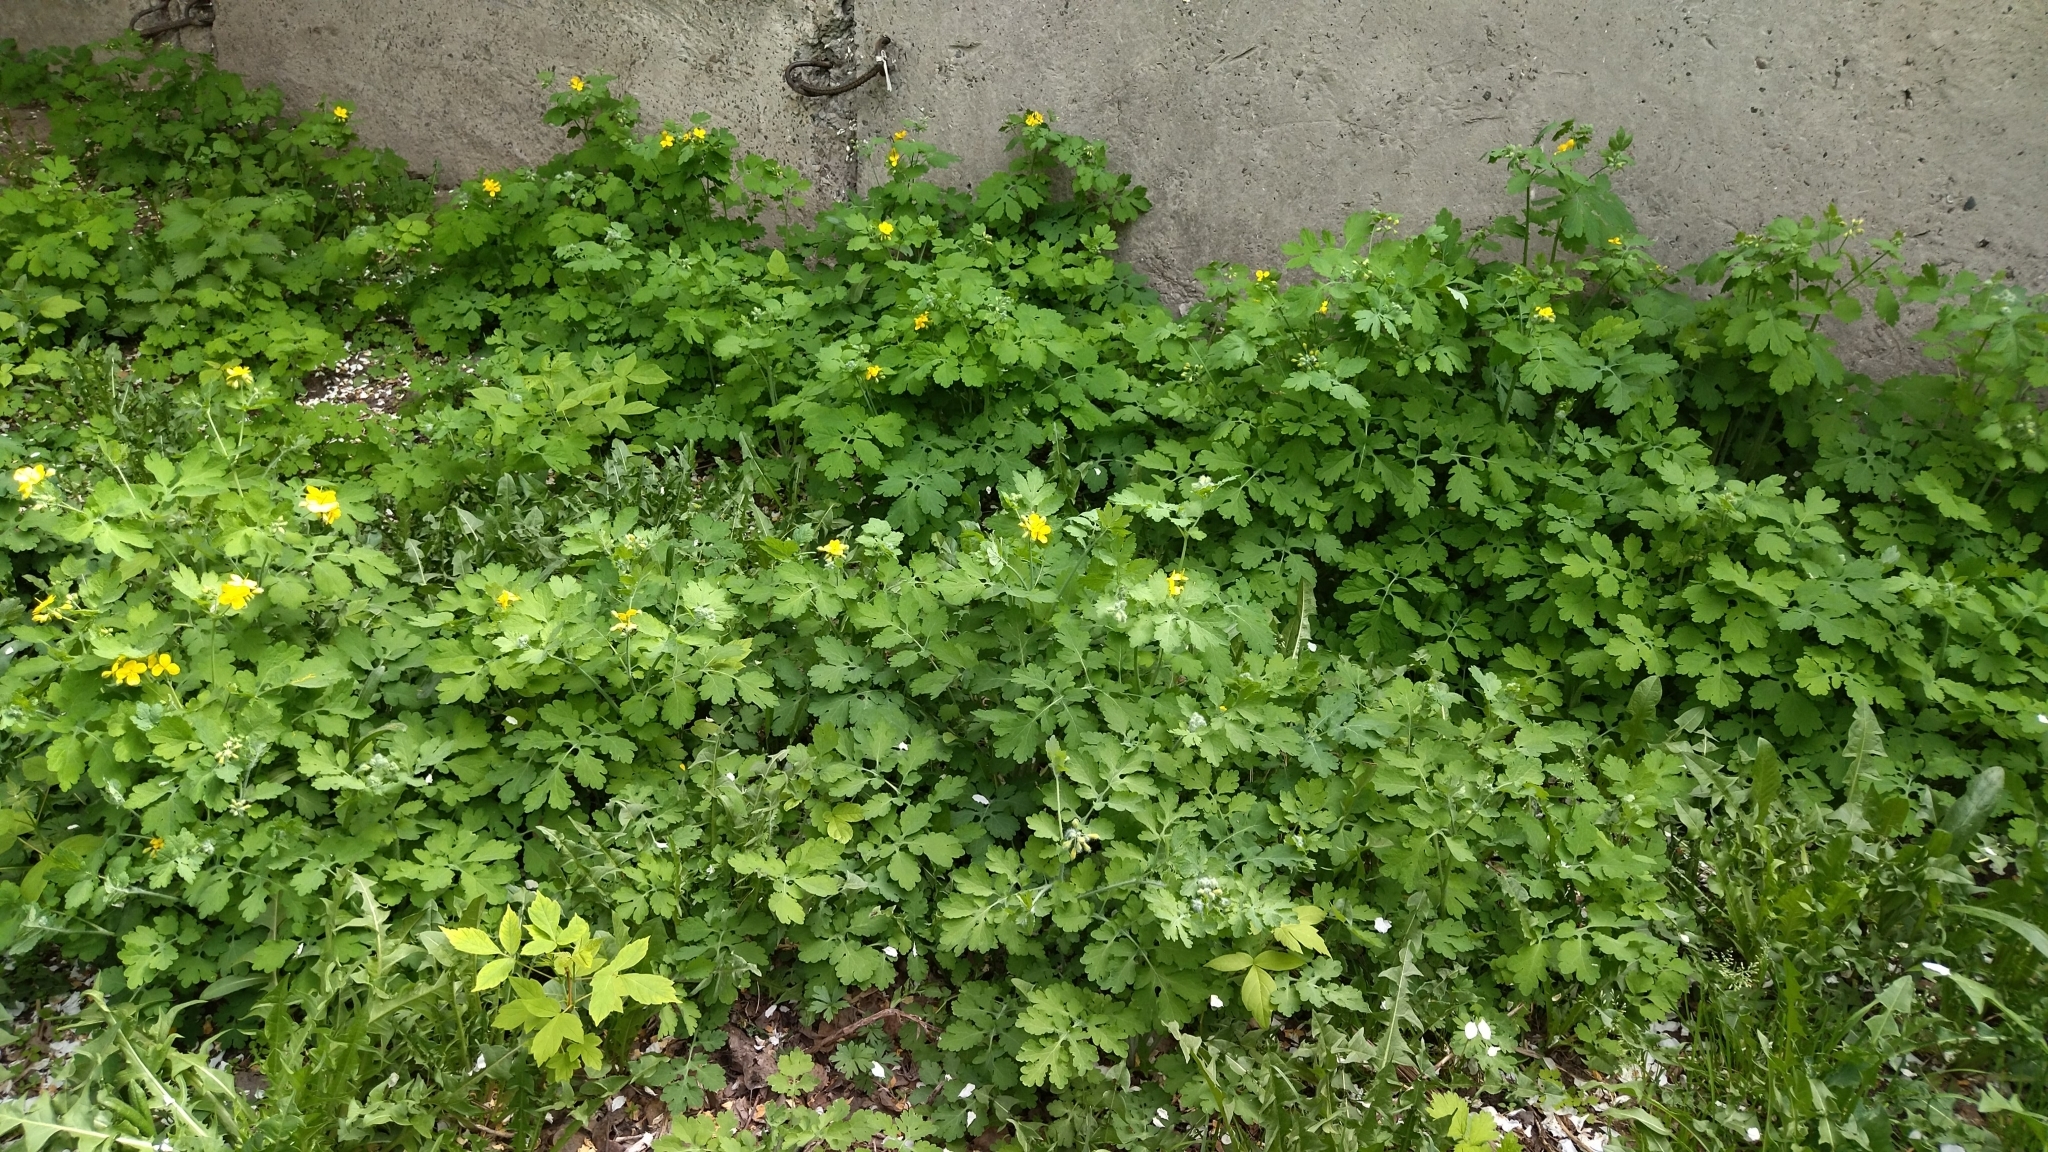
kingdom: Plantae
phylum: Tracheophyta
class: Magnoliopsida
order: Ranunculales
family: Papaveraceae
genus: Chelidonium
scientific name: Chelidonium majus
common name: Greater celandine
